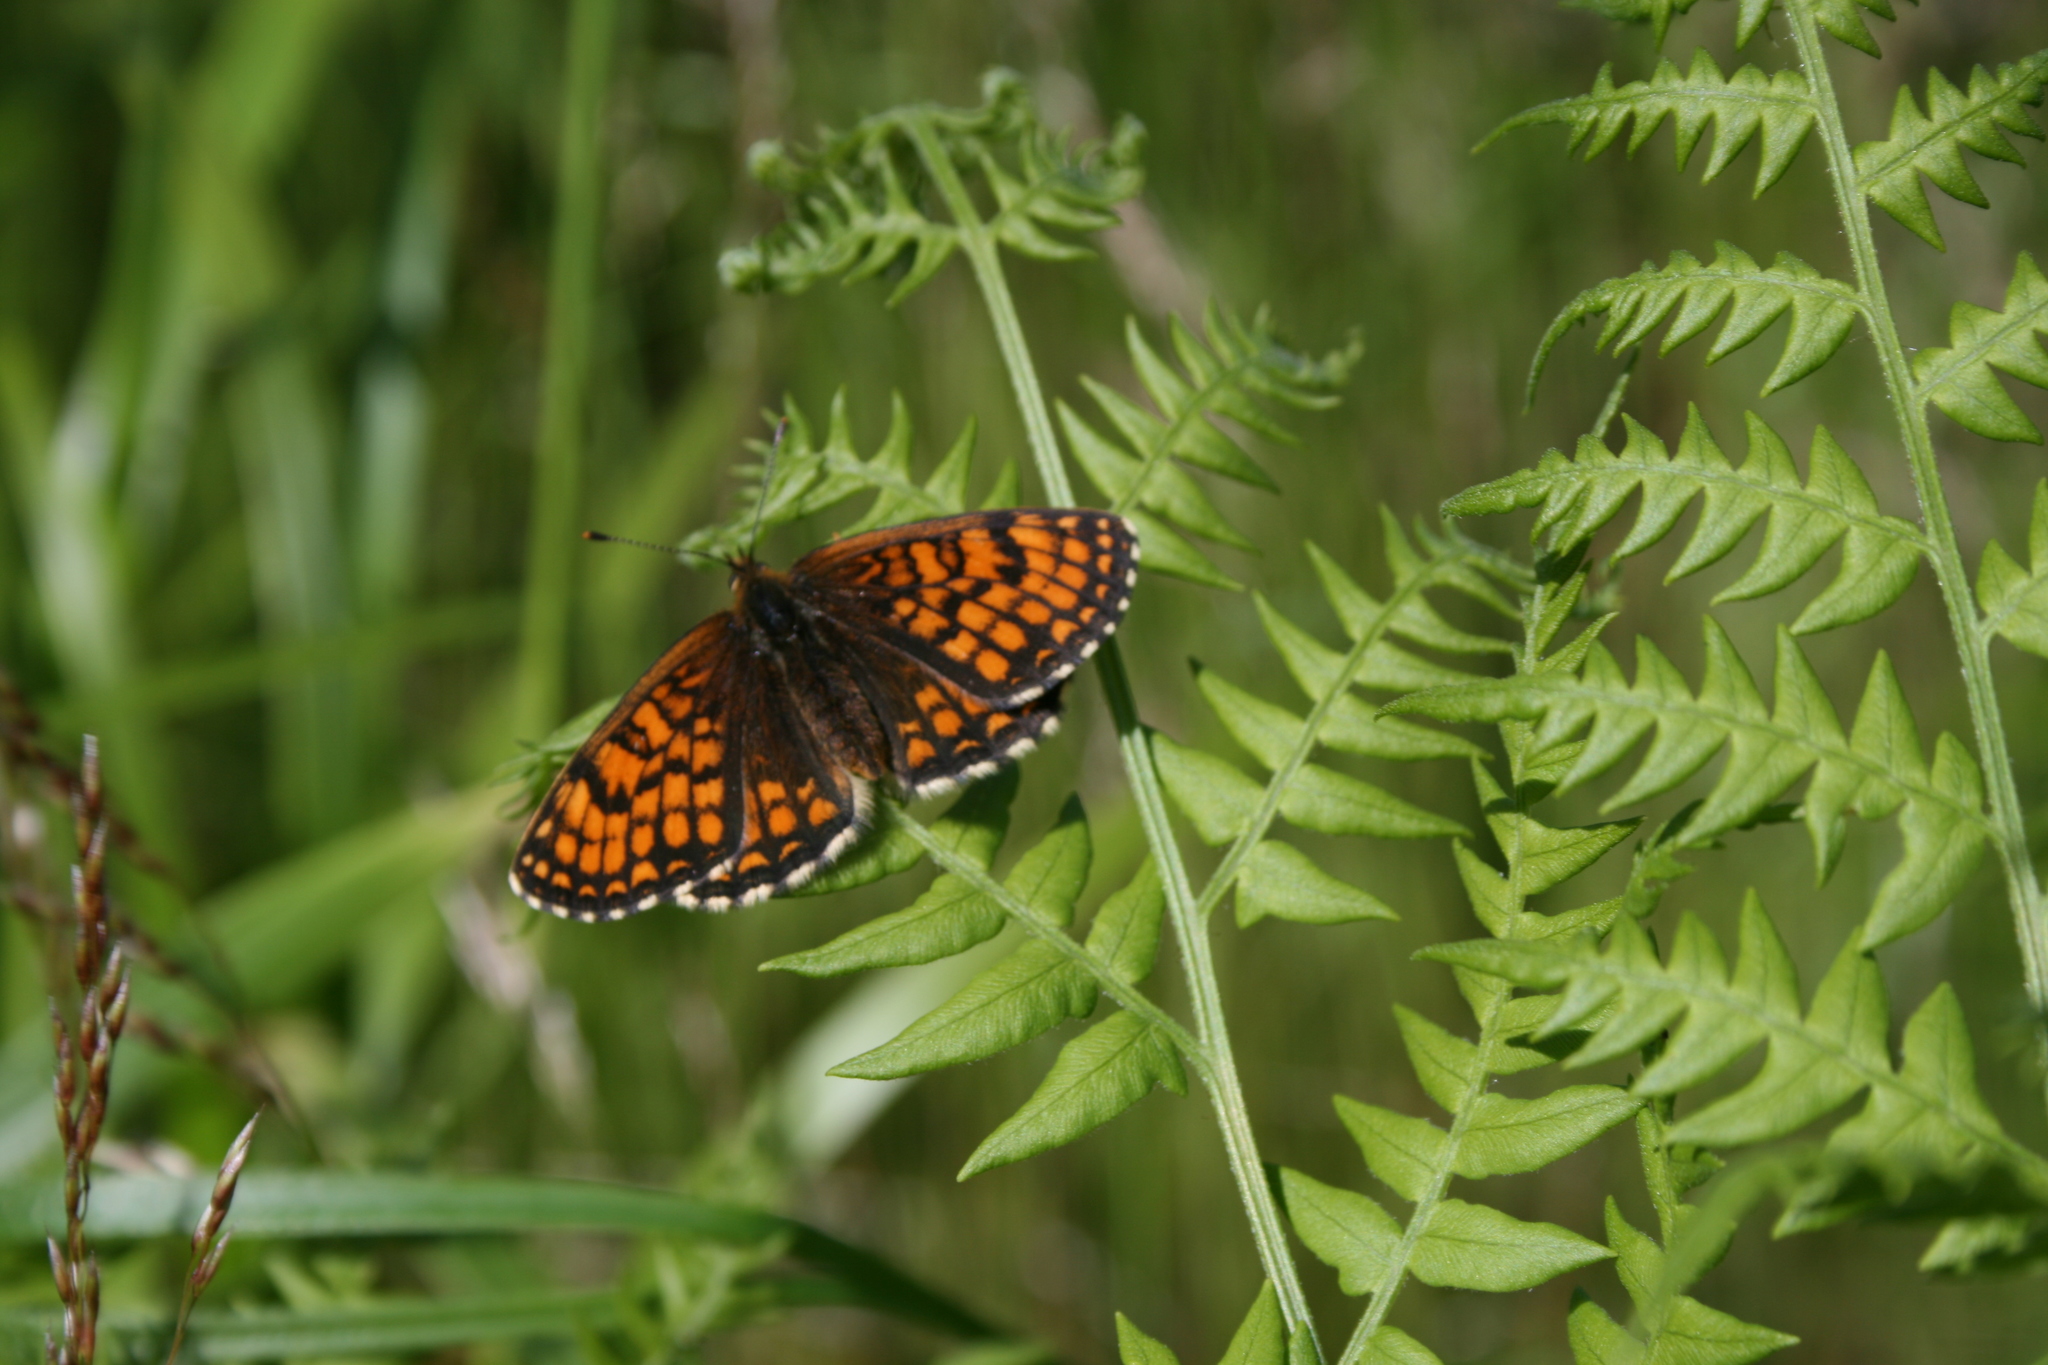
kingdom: Animalia
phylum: Arthropoda
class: Insecta
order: Lepidoptera
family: Nymphalidae
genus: Melitaea
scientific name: Melitaea athalia
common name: Heath fritillary
